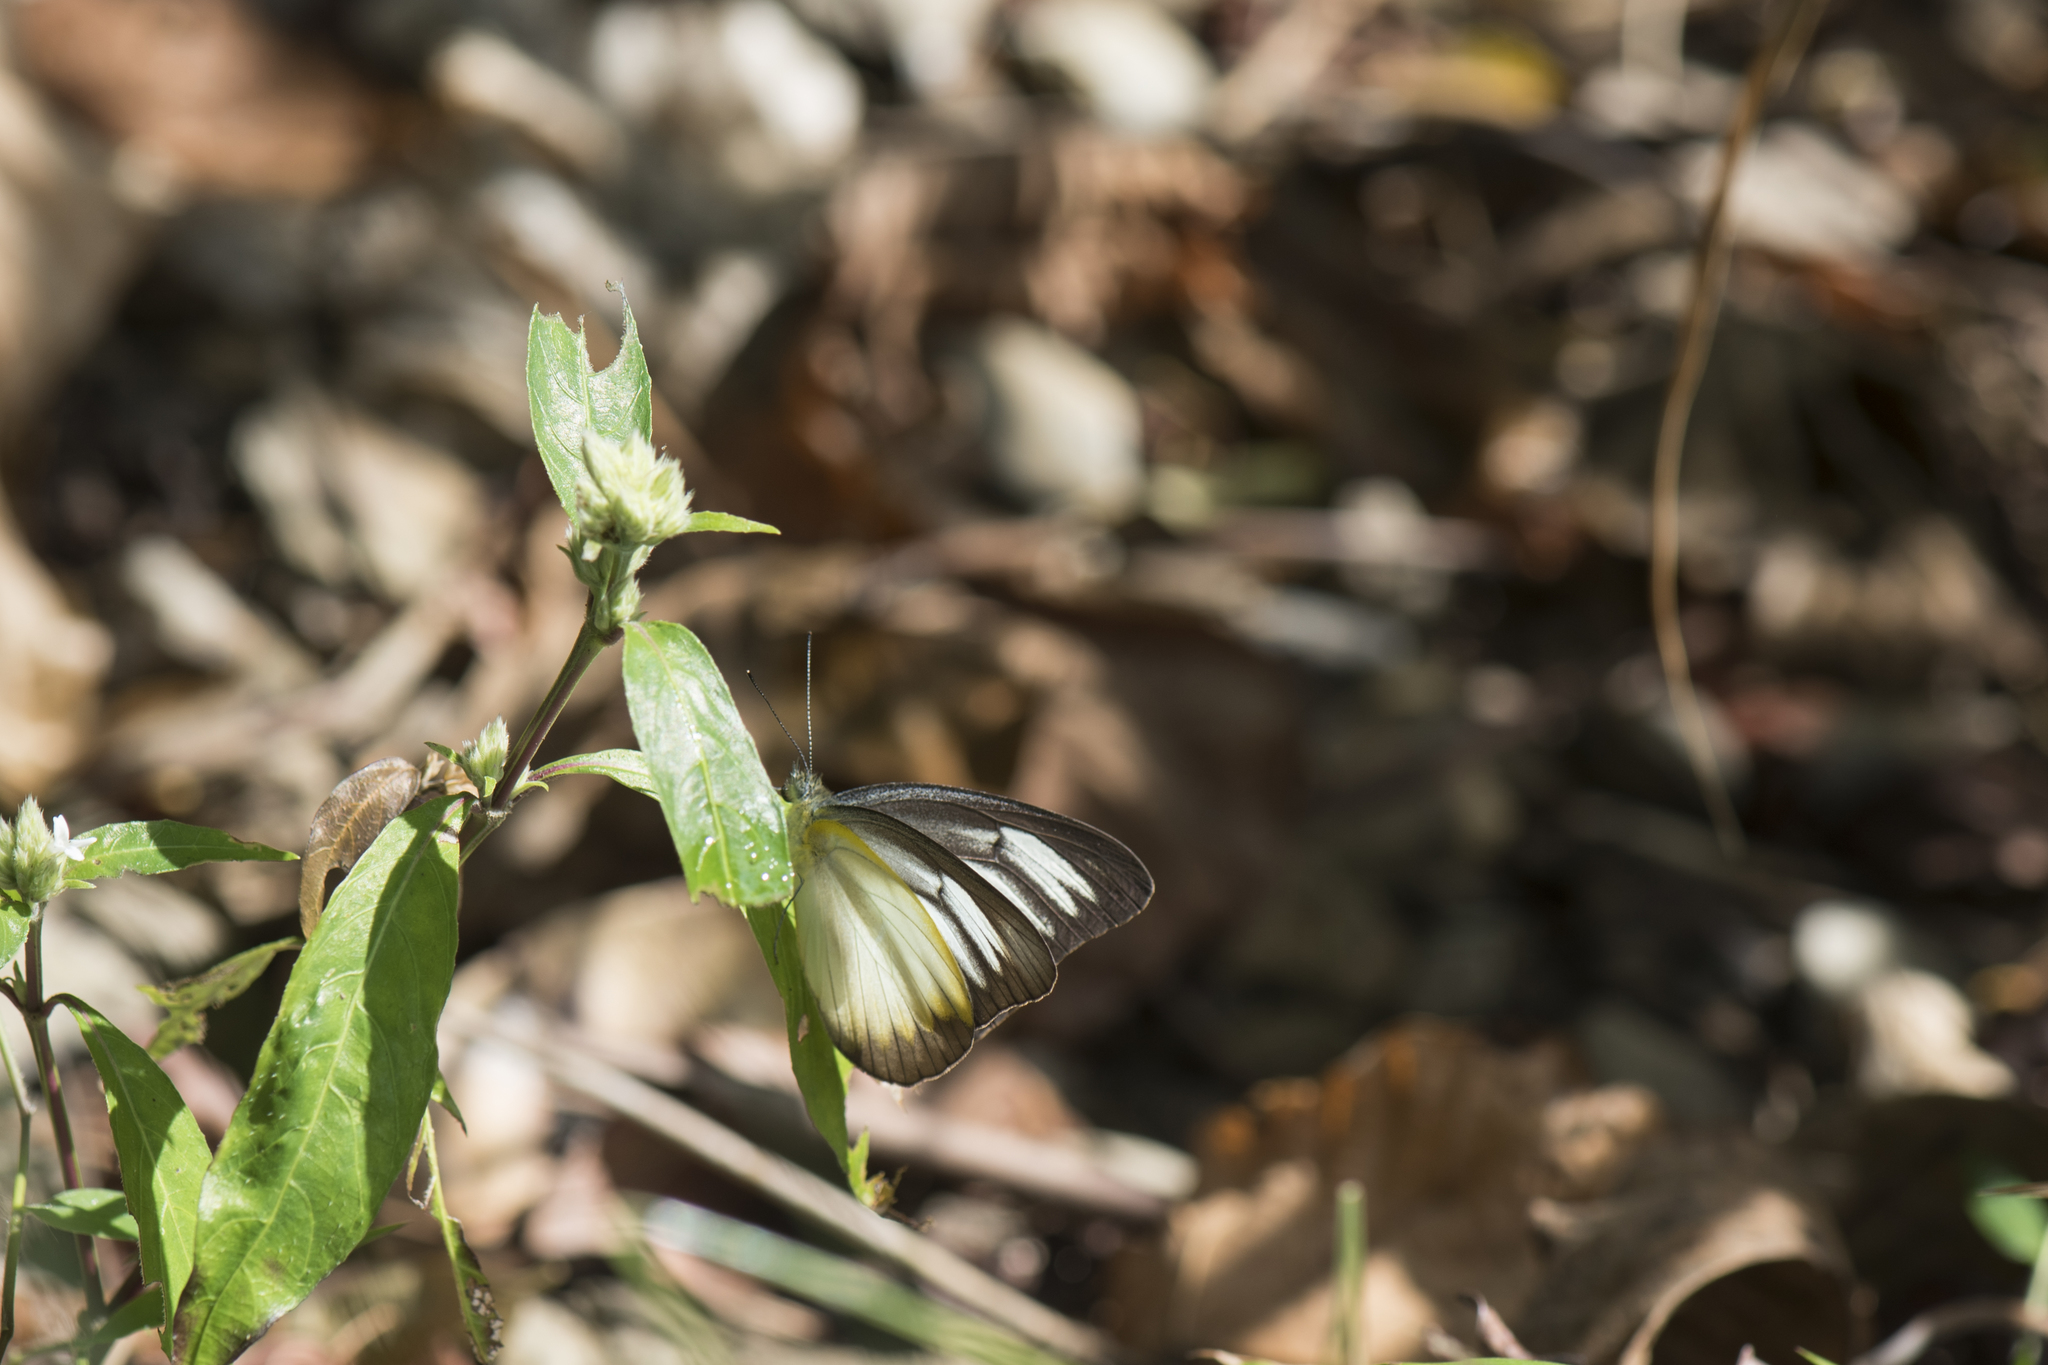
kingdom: Animalia
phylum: Arthropoda
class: Insecta
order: Lepidoptera
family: Pieridae
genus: Appias
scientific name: Appias lyncida
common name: Chocolate albatross
